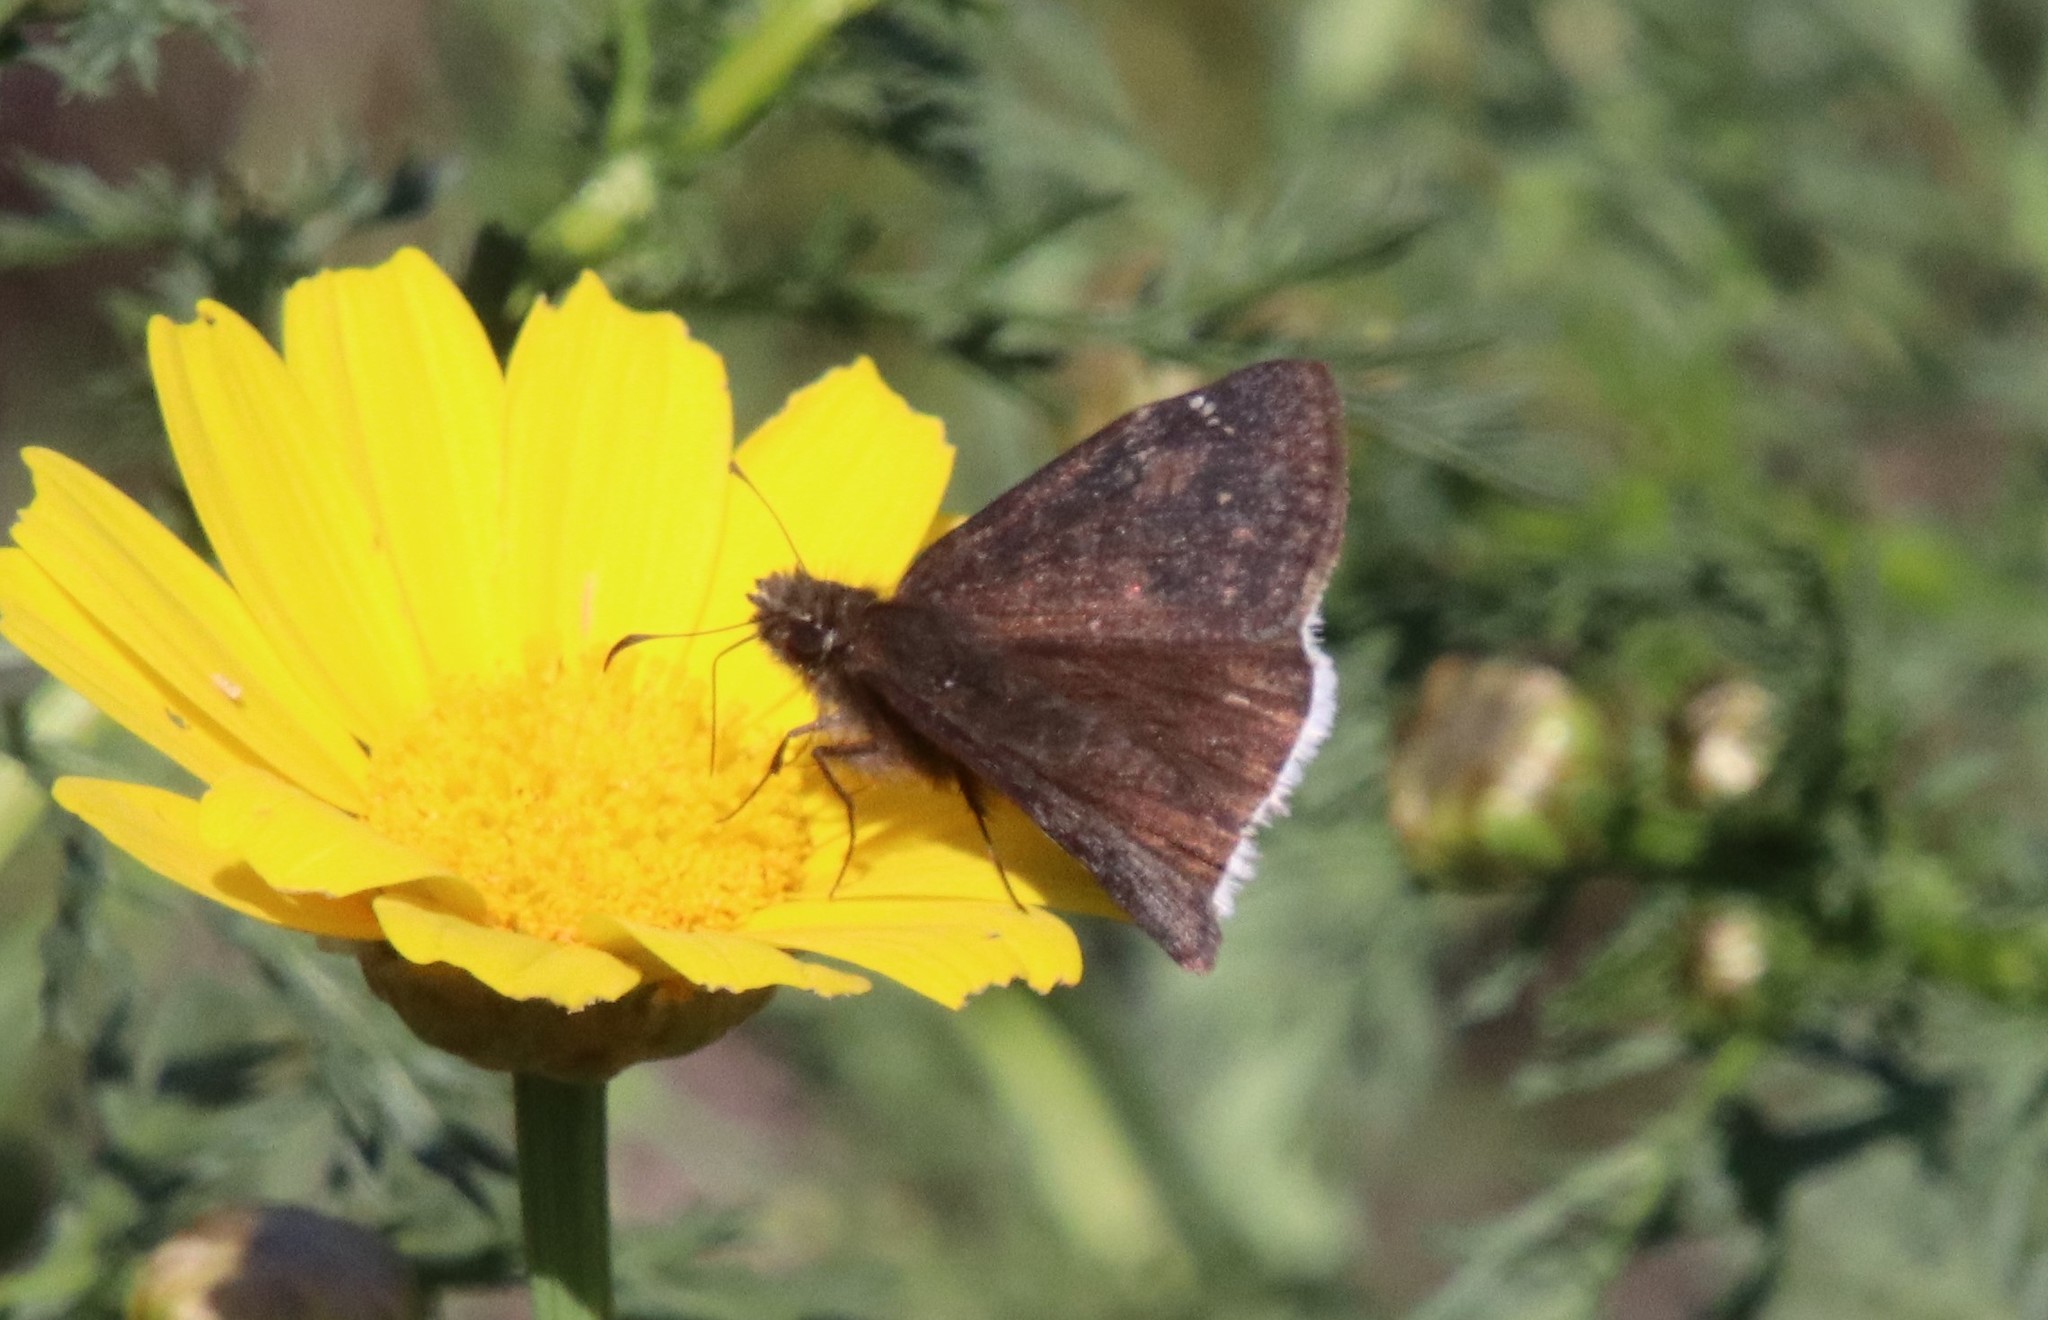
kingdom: Animalia
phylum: Arthropoda
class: Insecta
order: Lepidoptera
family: Hesperiidae
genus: Erynnis
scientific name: Erynnis tristis
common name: Mournful duskywing
